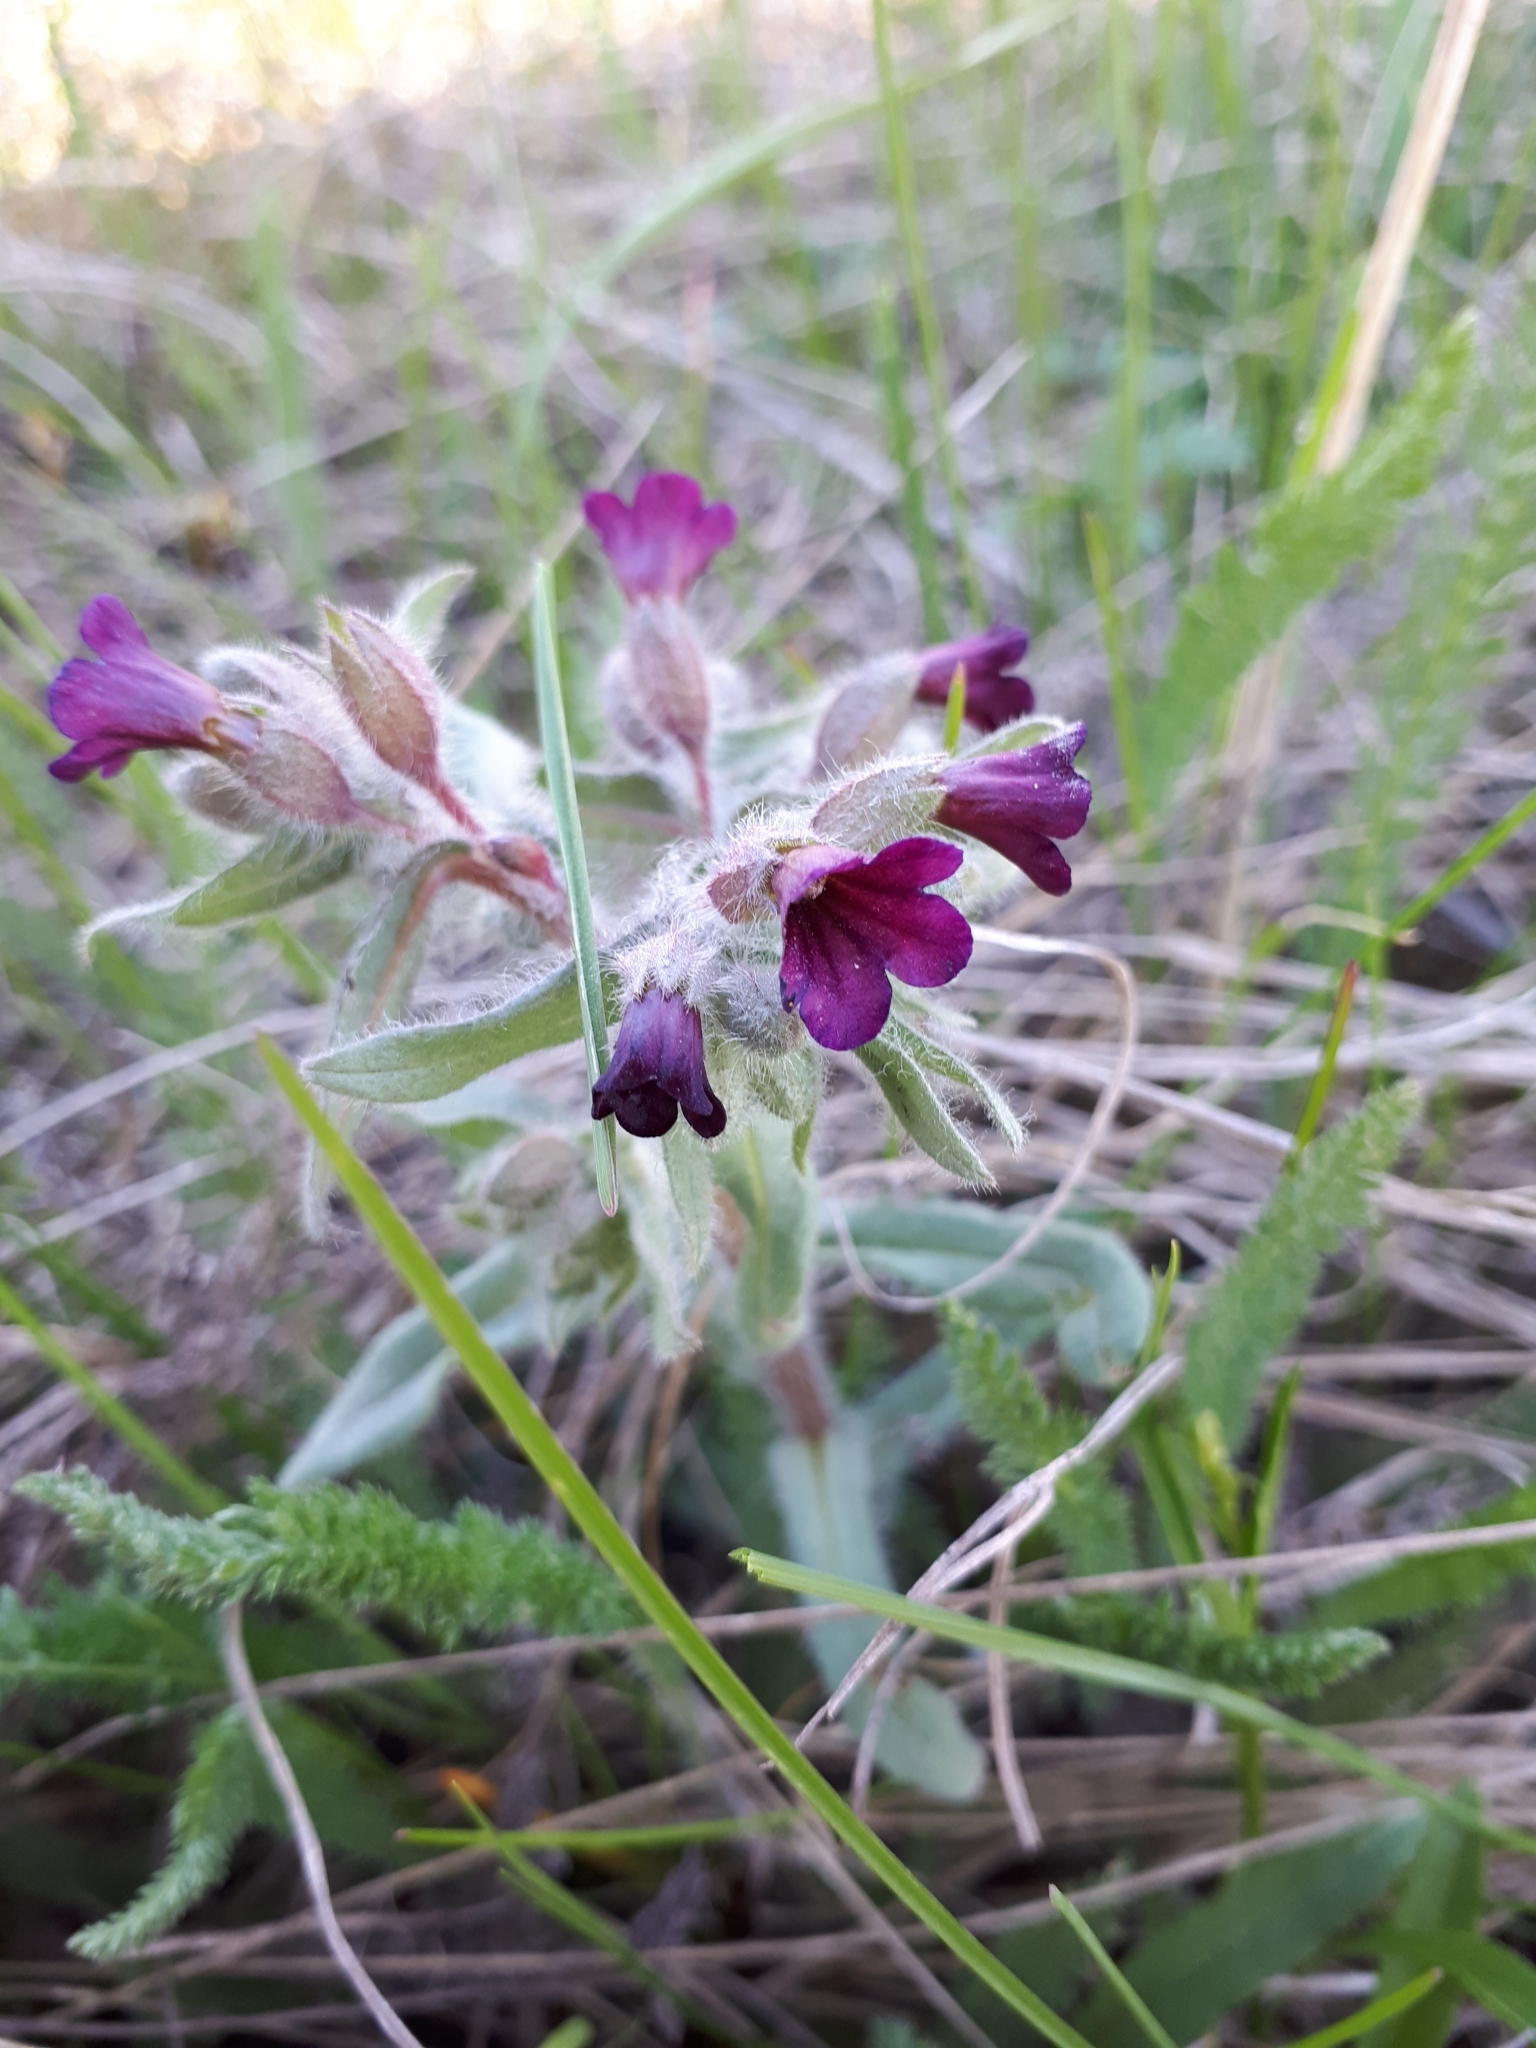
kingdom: Plantae
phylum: Tracheophyta
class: Magnoliopsida
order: Boraginales
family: Boraginaceae
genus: Nonea
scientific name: Nonea pulla
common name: Brown nonea
